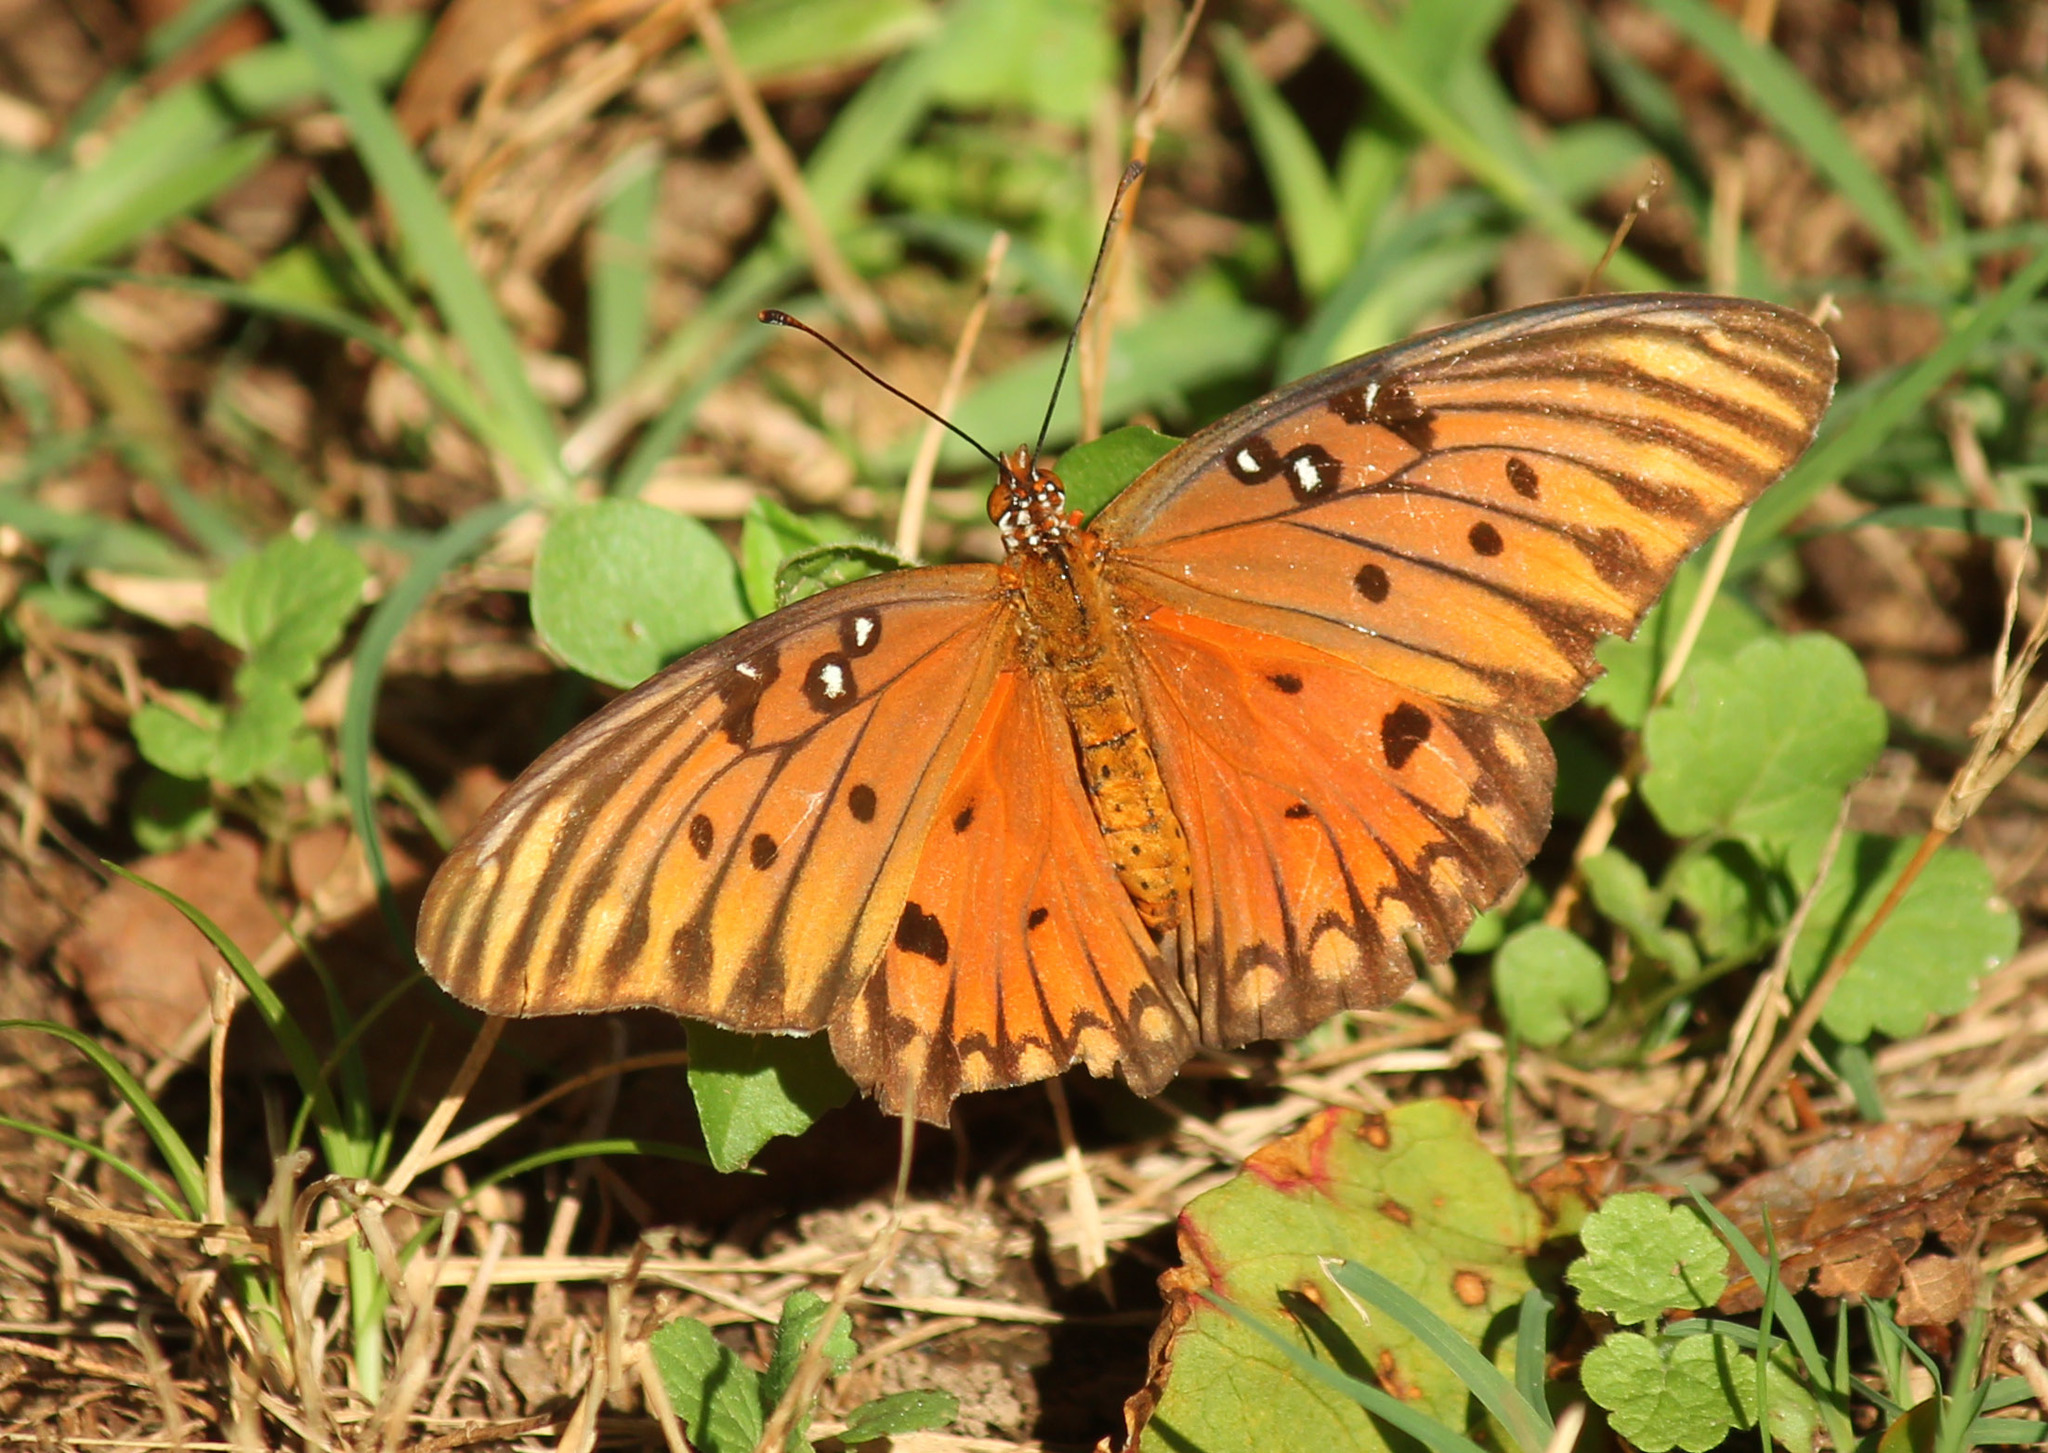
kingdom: Animalia
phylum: Arthropoda
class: Insecta
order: Lepidoptera
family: Nymphalidae
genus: Dione
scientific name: Dione vanillae
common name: Gulf fritillary
